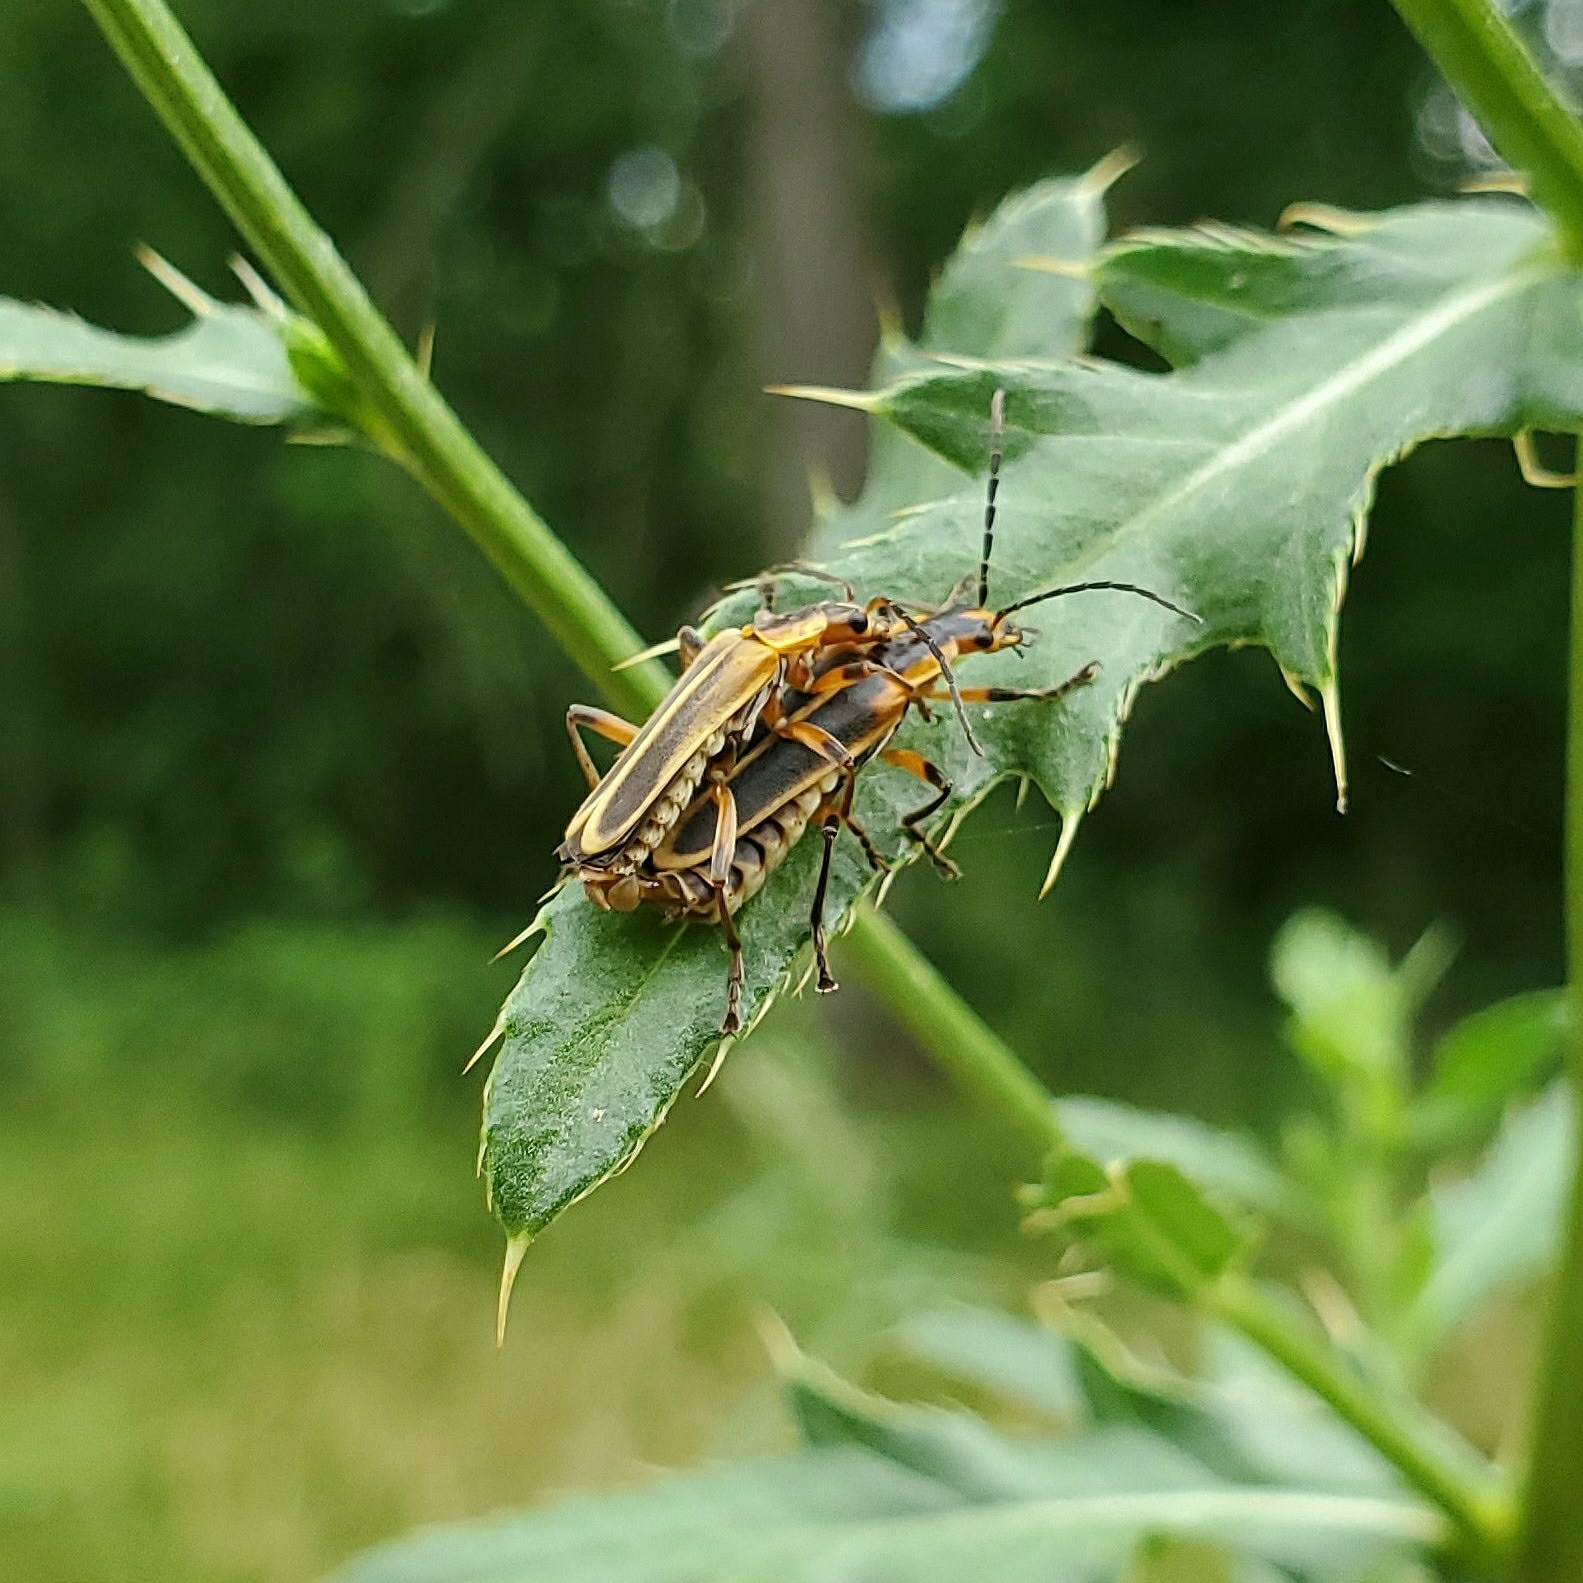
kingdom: Animalia
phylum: Arthropoda
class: Insecta
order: Coleoptera
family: Cantharidae
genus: Chauliognathus
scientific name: Chauliognathus marginatus
